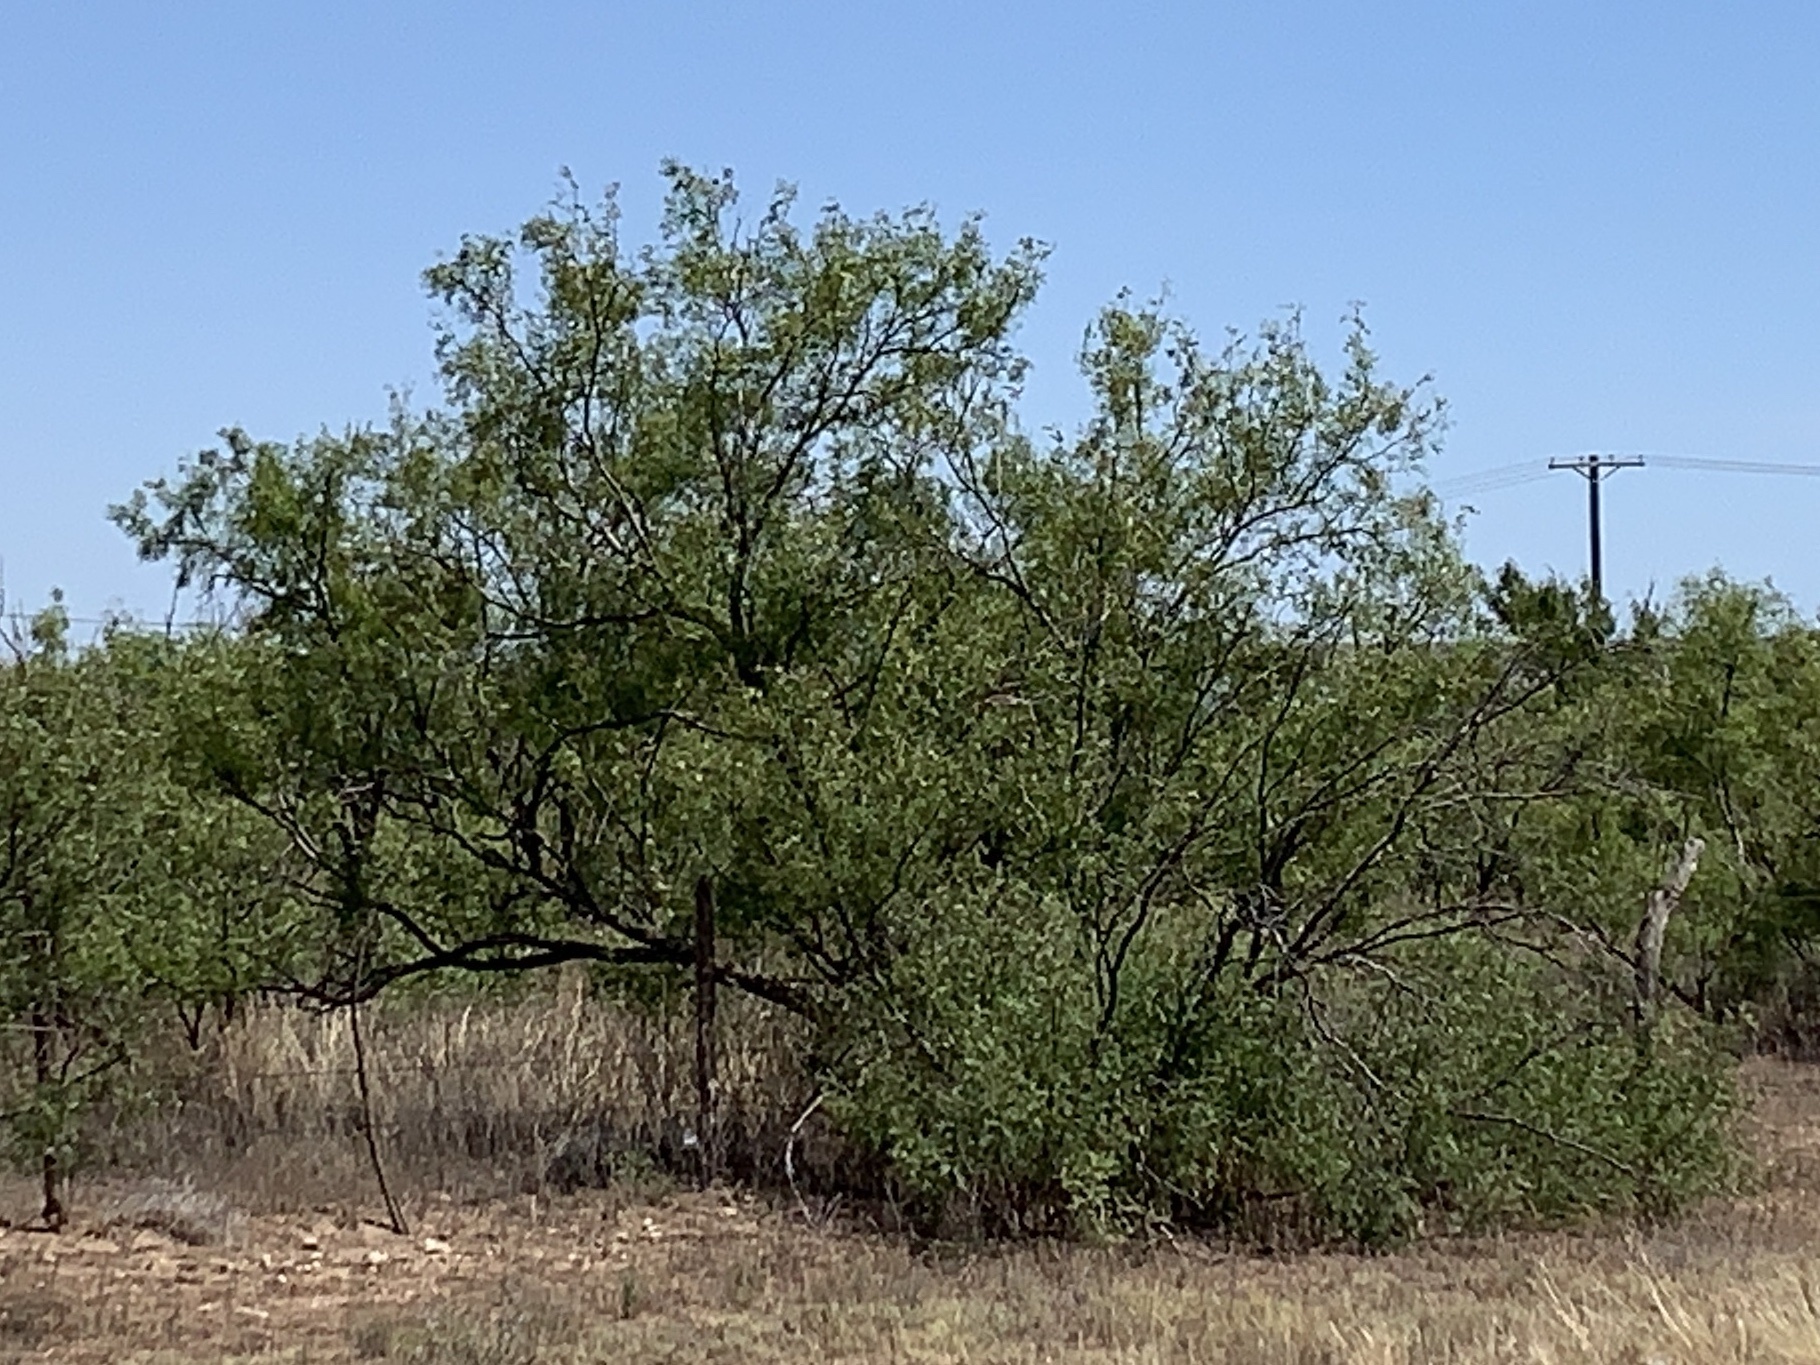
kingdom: Plantae
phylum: Tracheophyta
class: Magnoliopsida
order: Fabales
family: Fabaceae
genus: Prosopis
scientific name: Prosopis glandulosa
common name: Honey mesquite
